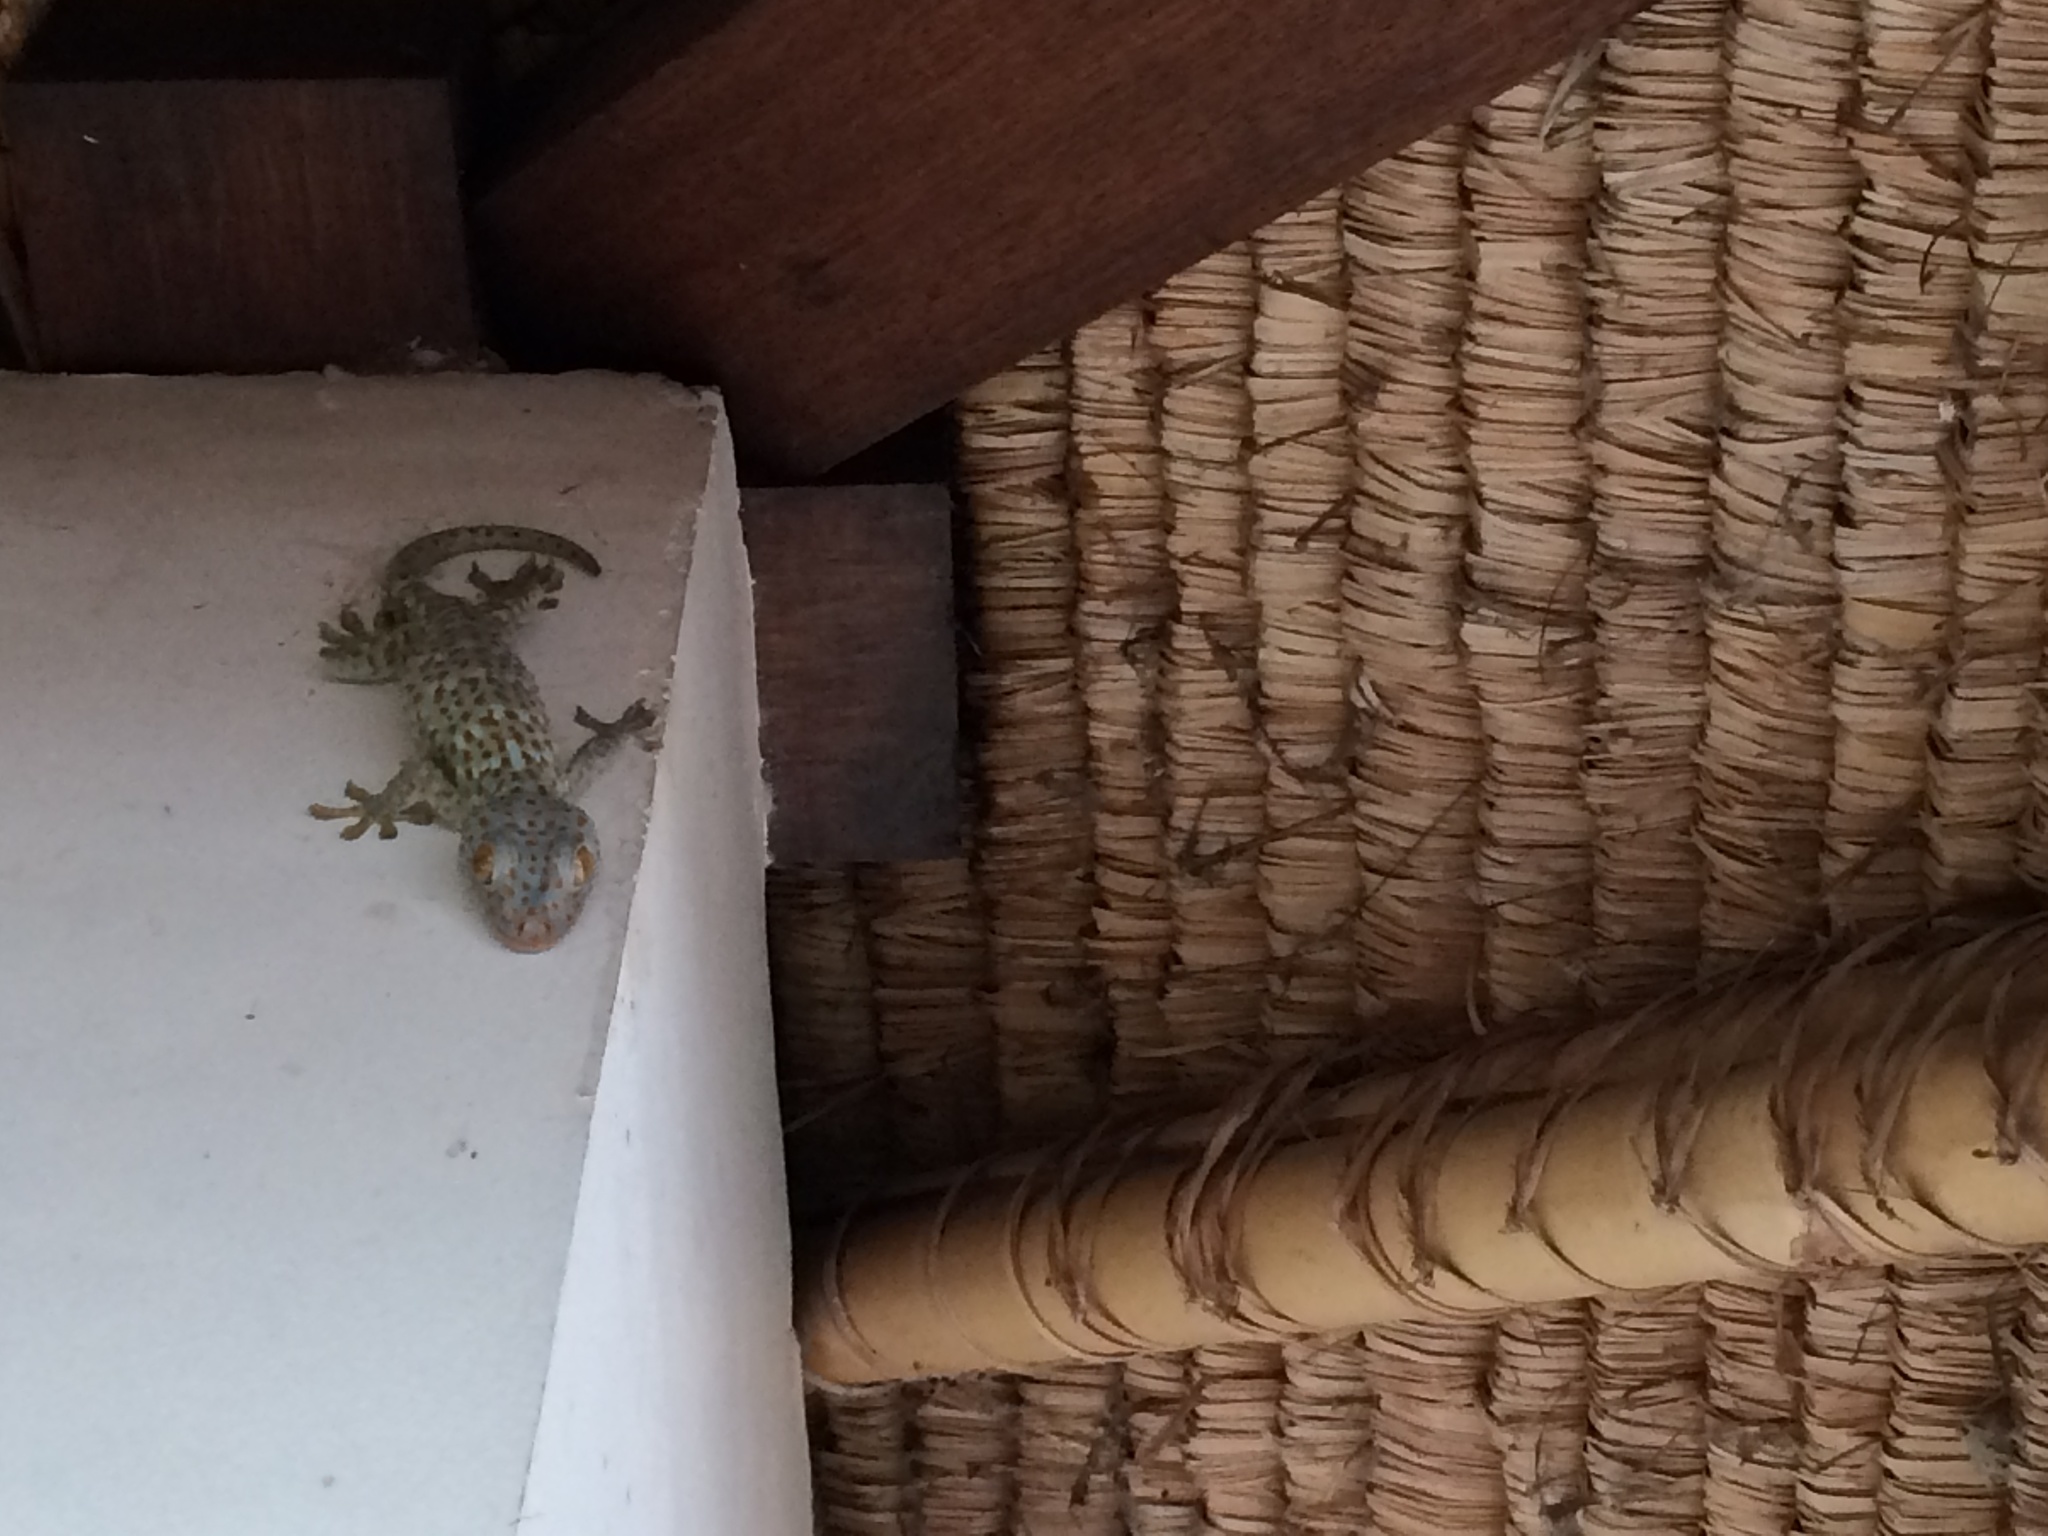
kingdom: Animalia
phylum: Chordata
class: Squamata
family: Gekkonidae
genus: Gekko
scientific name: Gekko gecko
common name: Tokay gecko
